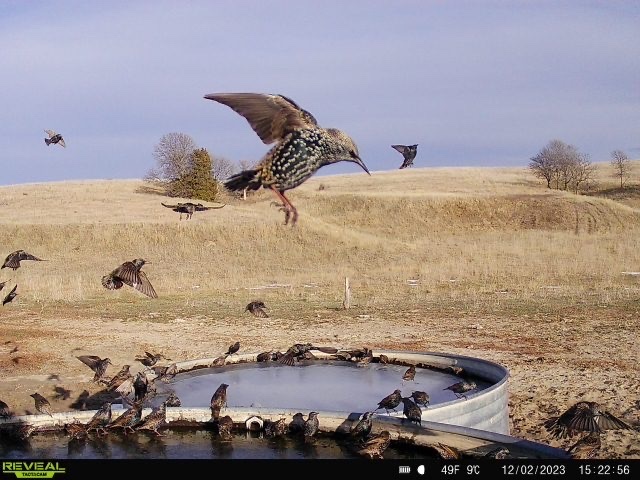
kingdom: Animalia
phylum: Chordata
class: Aves
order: Passeriformes
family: Sturnidae
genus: Sturnus
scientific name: Sturnus vulgaris
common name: Common starling
